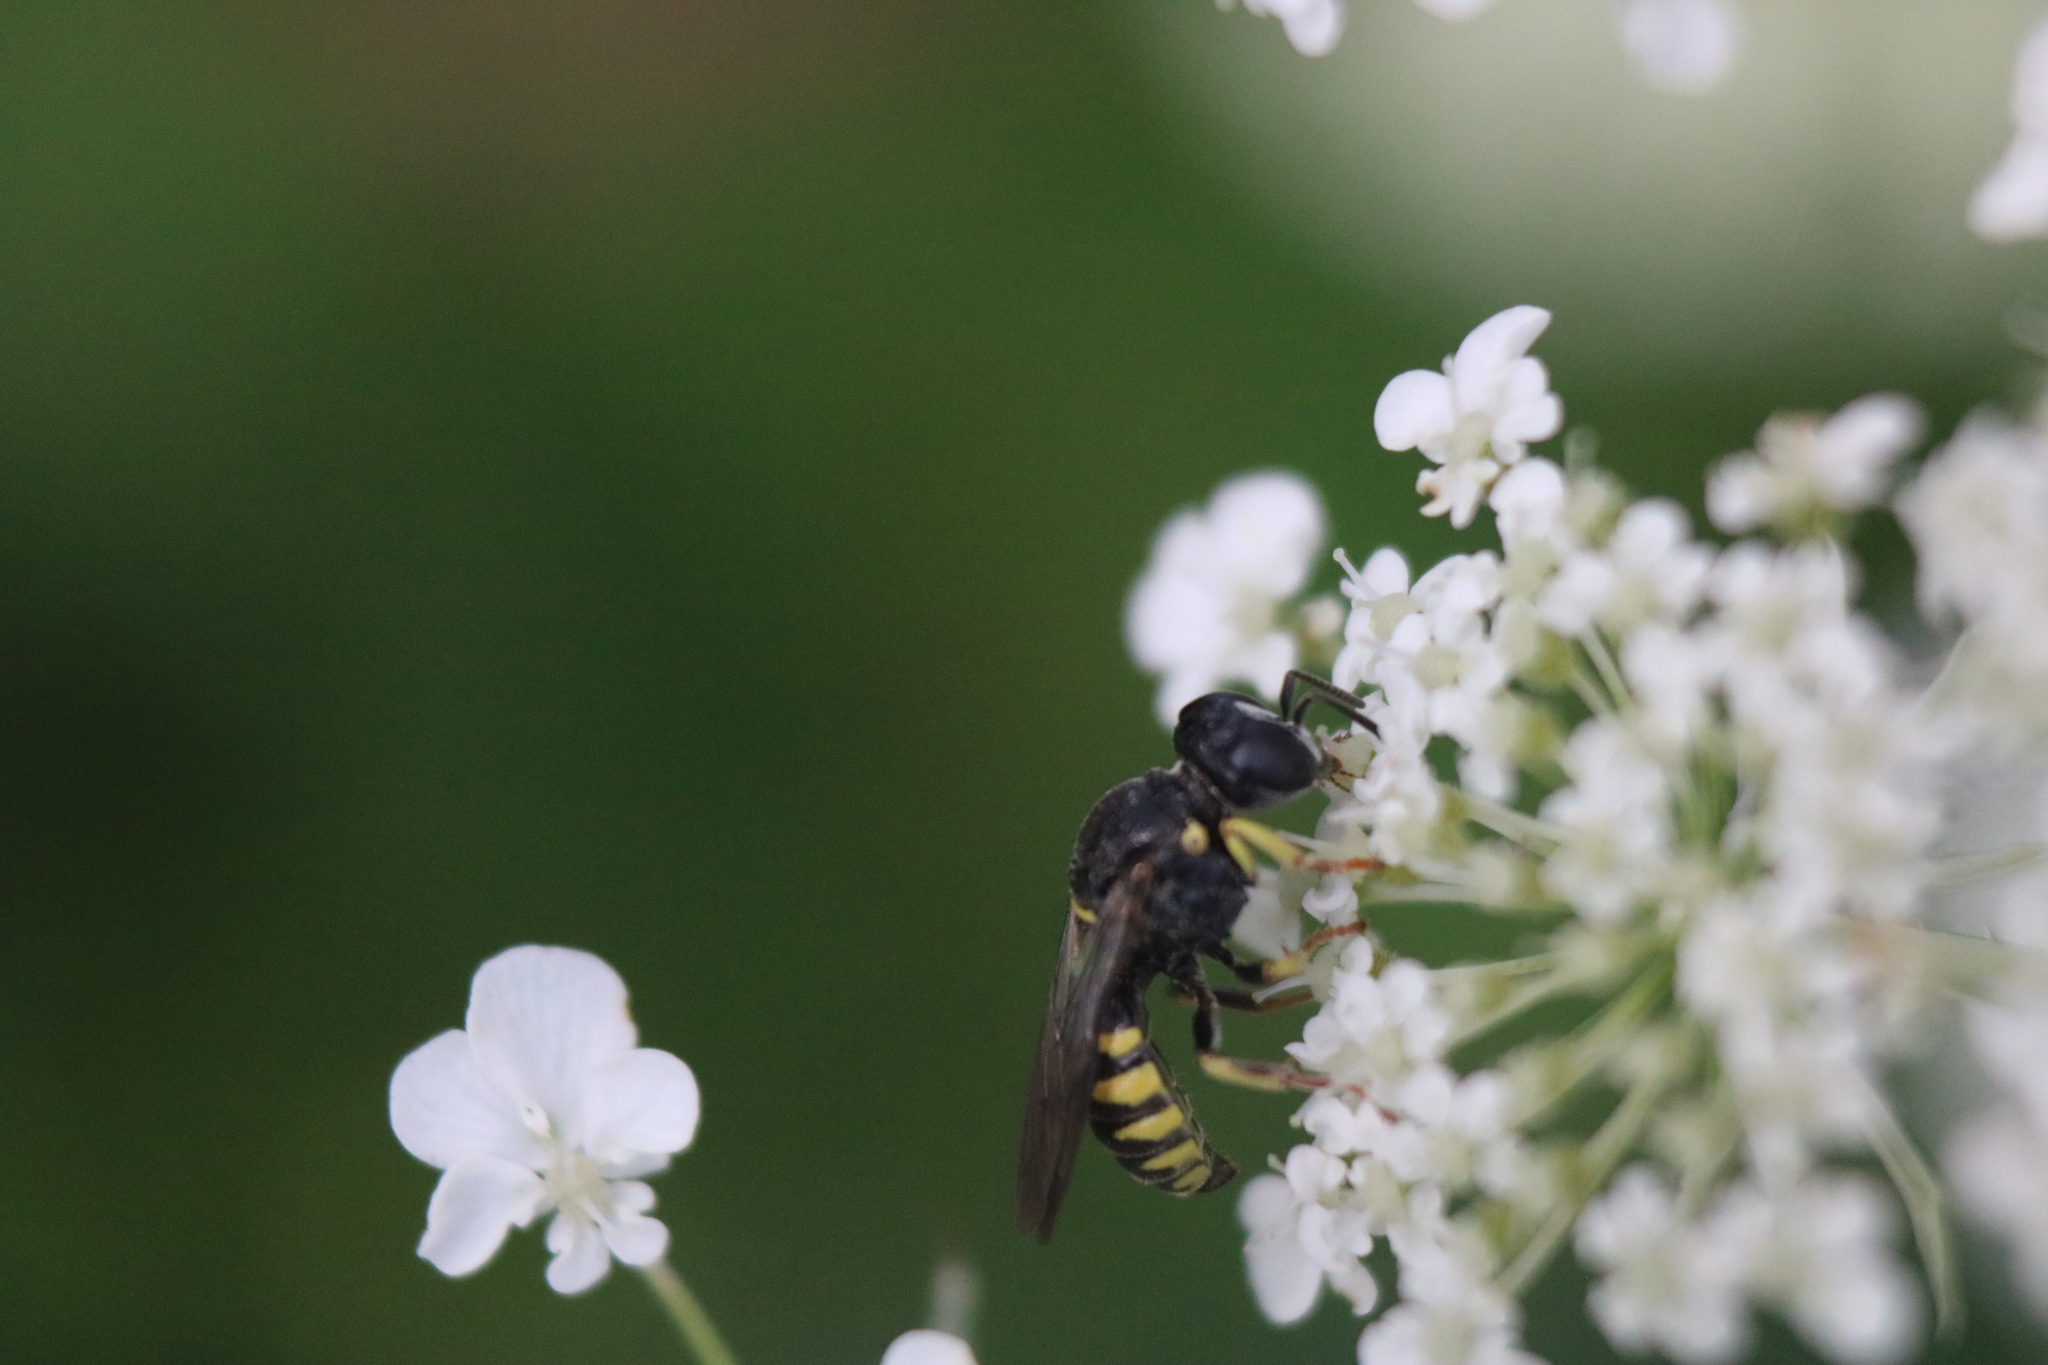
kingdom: Animalia
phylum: Arthropoda
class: Insecta
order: Hymenoptera
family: Crabronidae
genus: Anacrabro
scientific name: Anacrabro ocellatus
